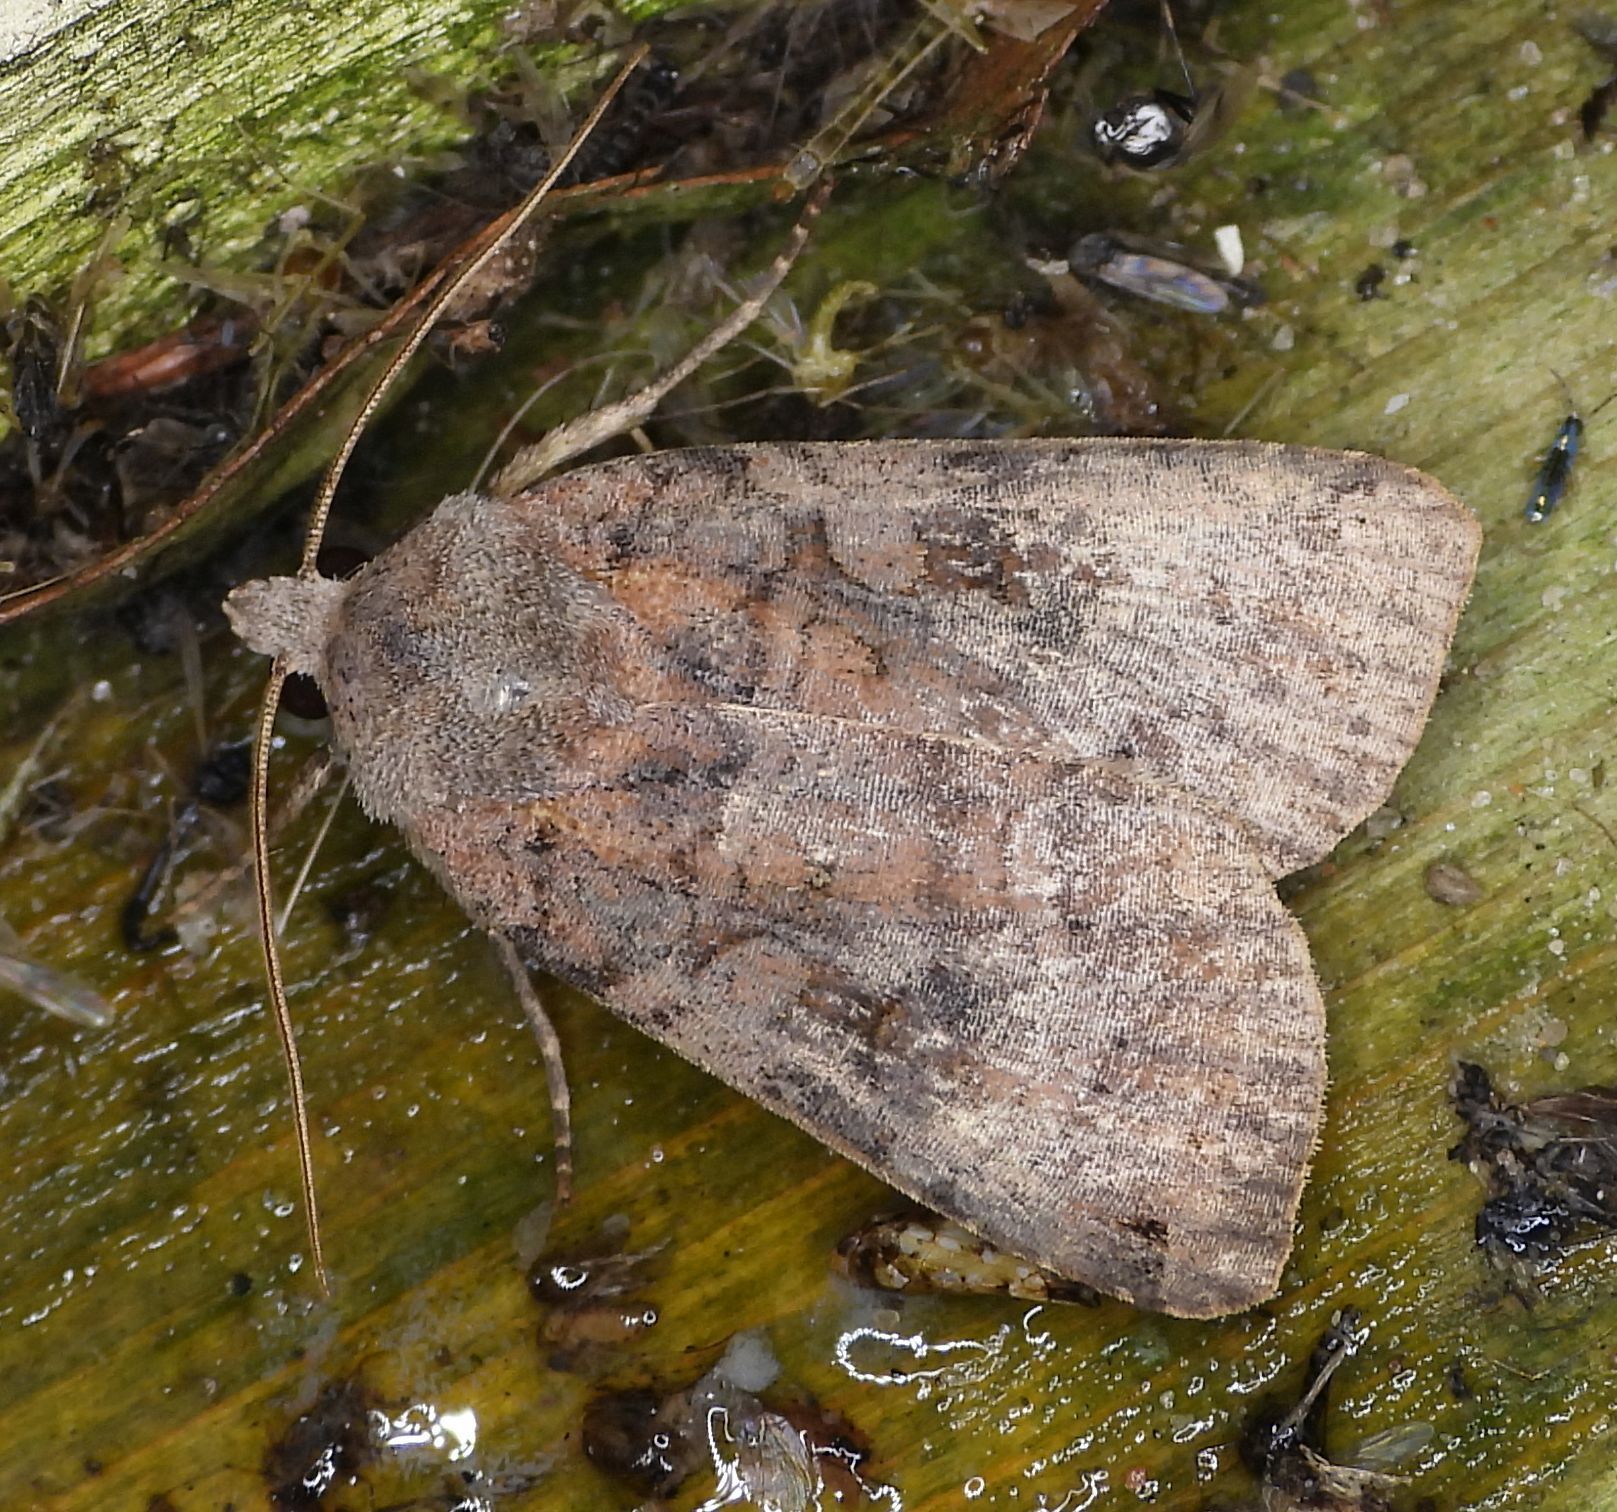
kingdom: Animalia
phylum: Arthropoda
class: Insecta
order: Lepidoptera
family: Noctuidae
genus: Xestia
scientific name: Xestia smithii
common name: Smith's dart
